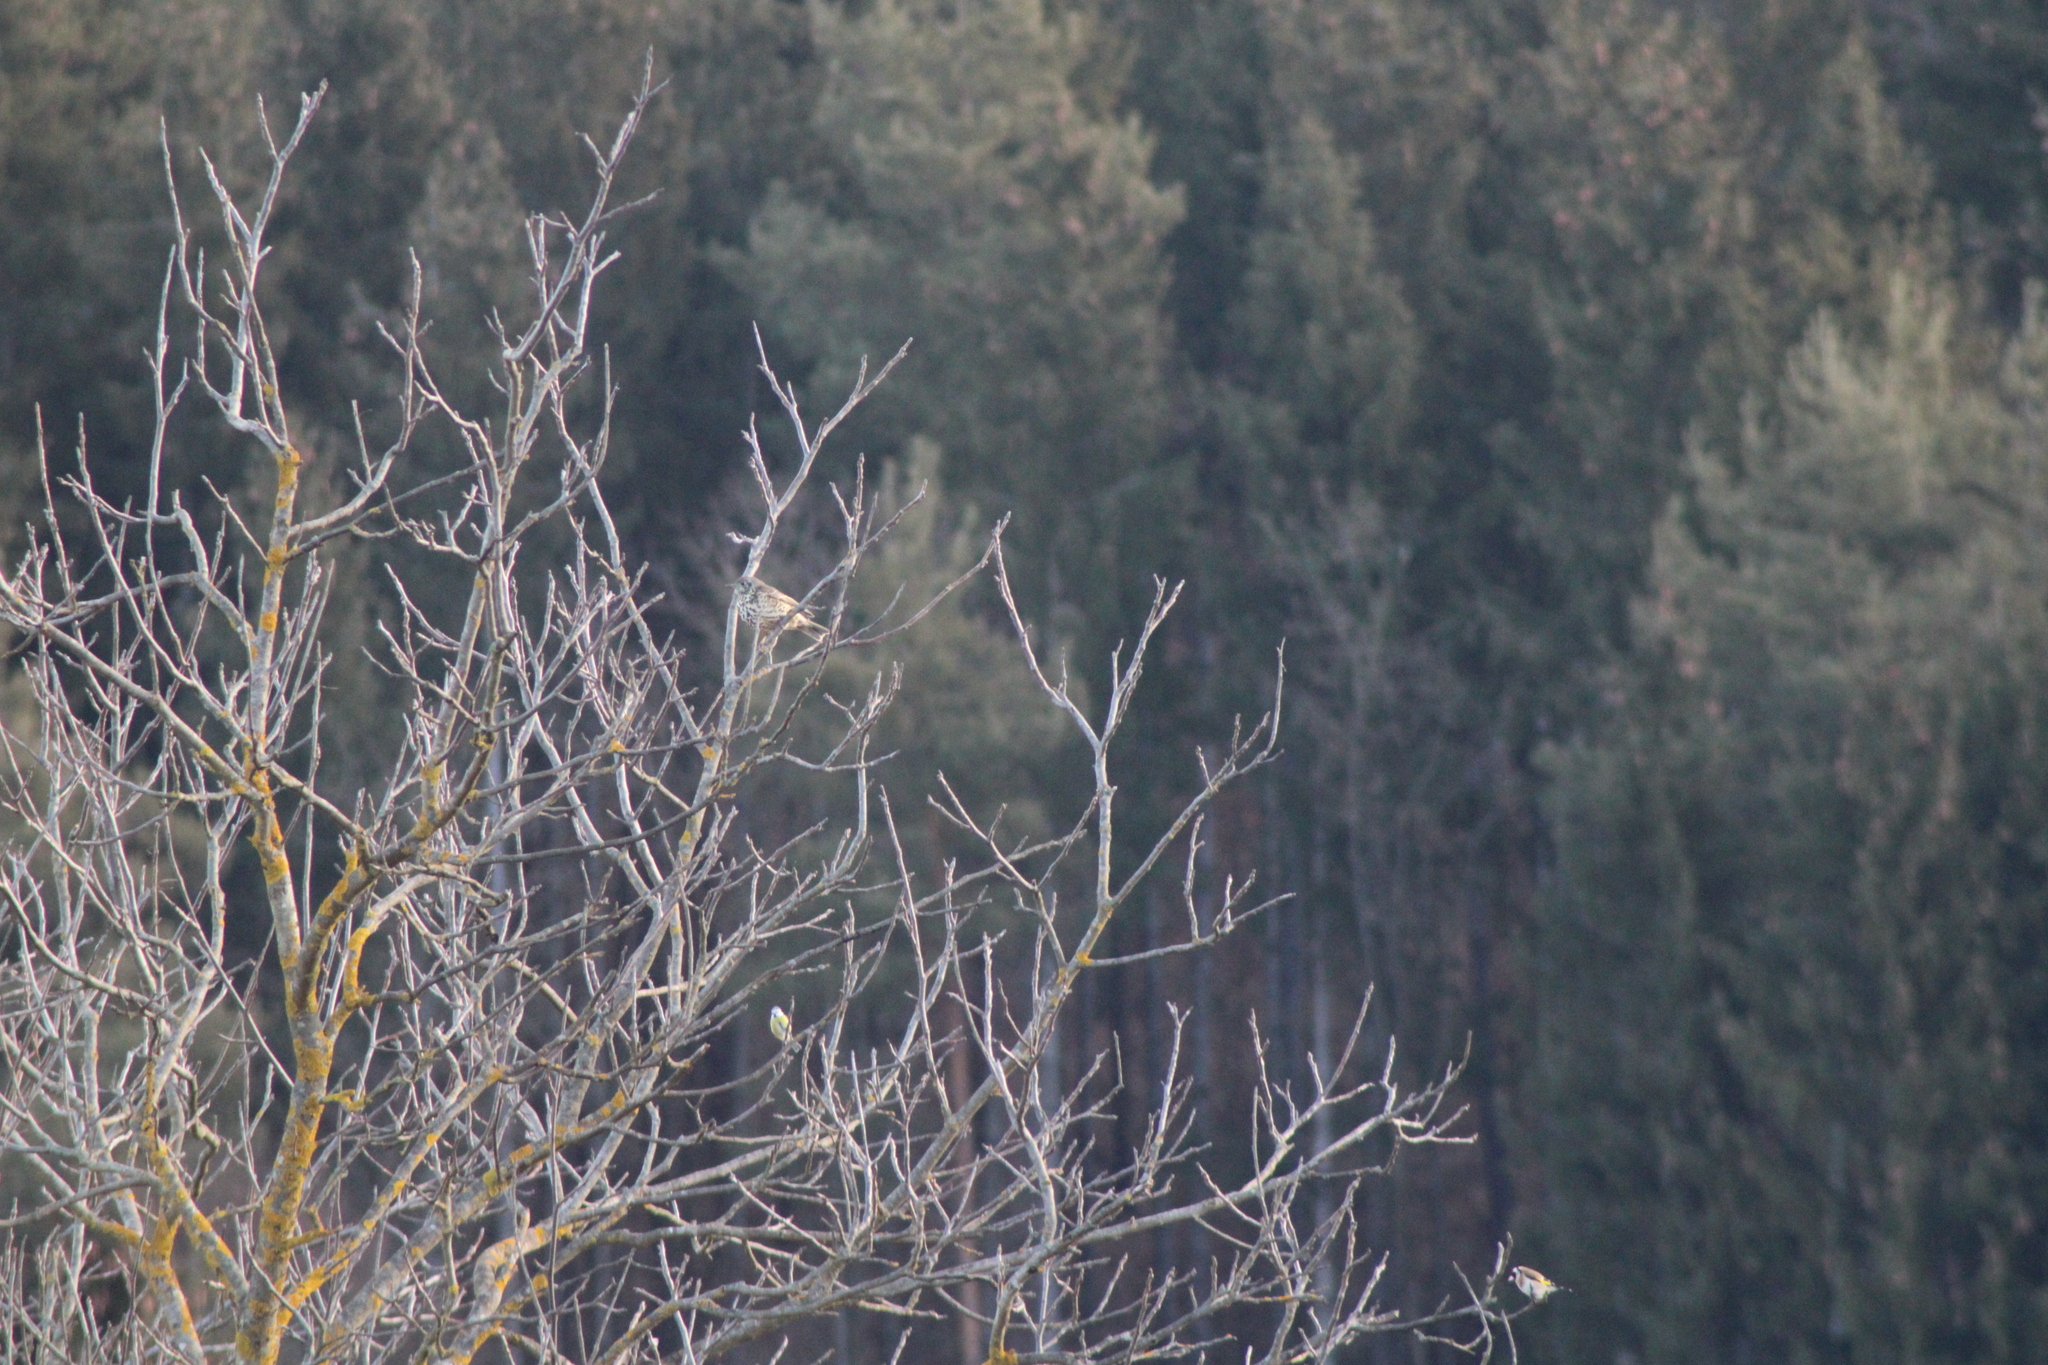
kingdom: Animalia
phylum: Chordata
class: Aves
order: Passeriformes
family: Turdidae
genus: Turdus
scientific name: Turdus viscivorus
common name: Mistle thrush
